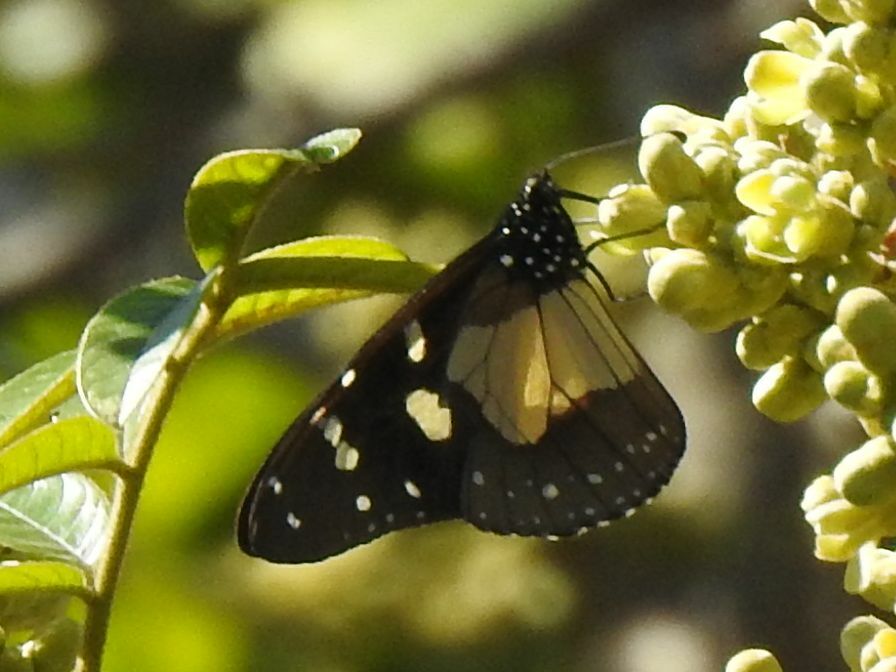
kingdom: Animalia
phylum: Arthropoda
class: Insecta
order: Lepidoptera
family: Nymphalidae
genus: Amauris
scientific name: Amauris echeria
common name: Chief
